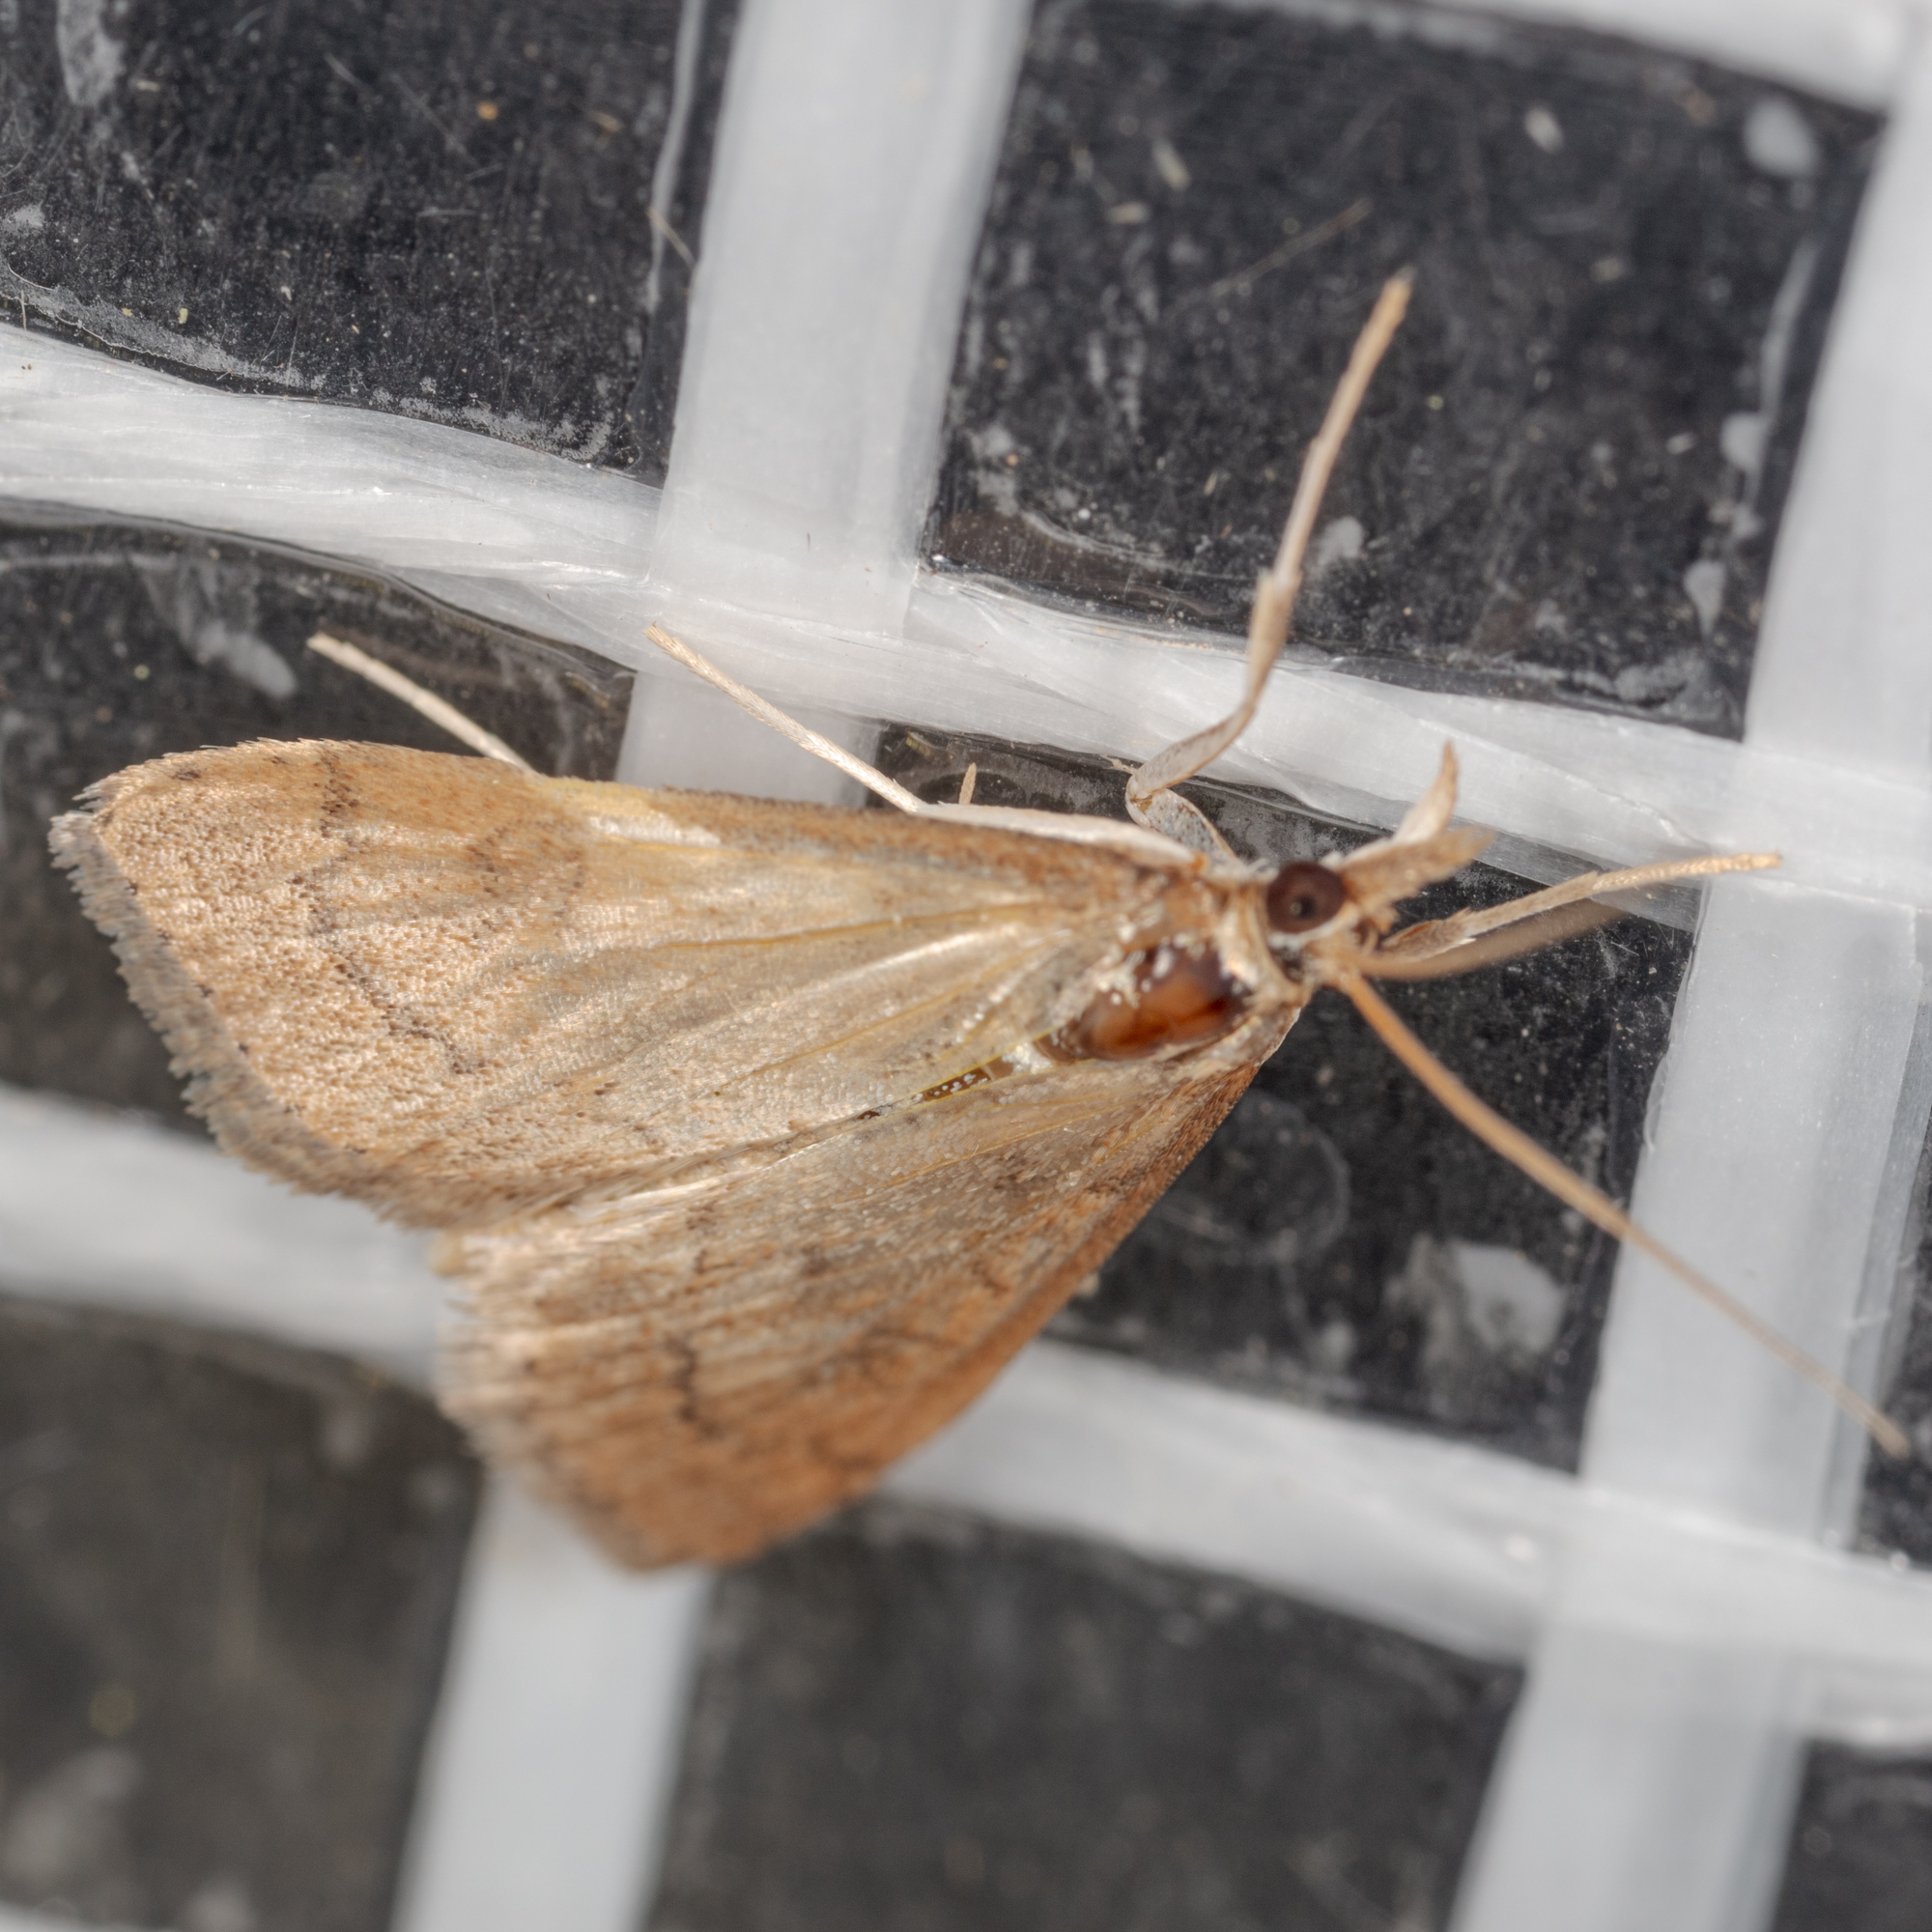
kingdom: Animalia
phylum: Arthropoda
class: Insecta
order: Lepidoptera
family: Crambidae
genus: Udea
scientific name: Udea rubigalis
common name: Celery leaftier moth
